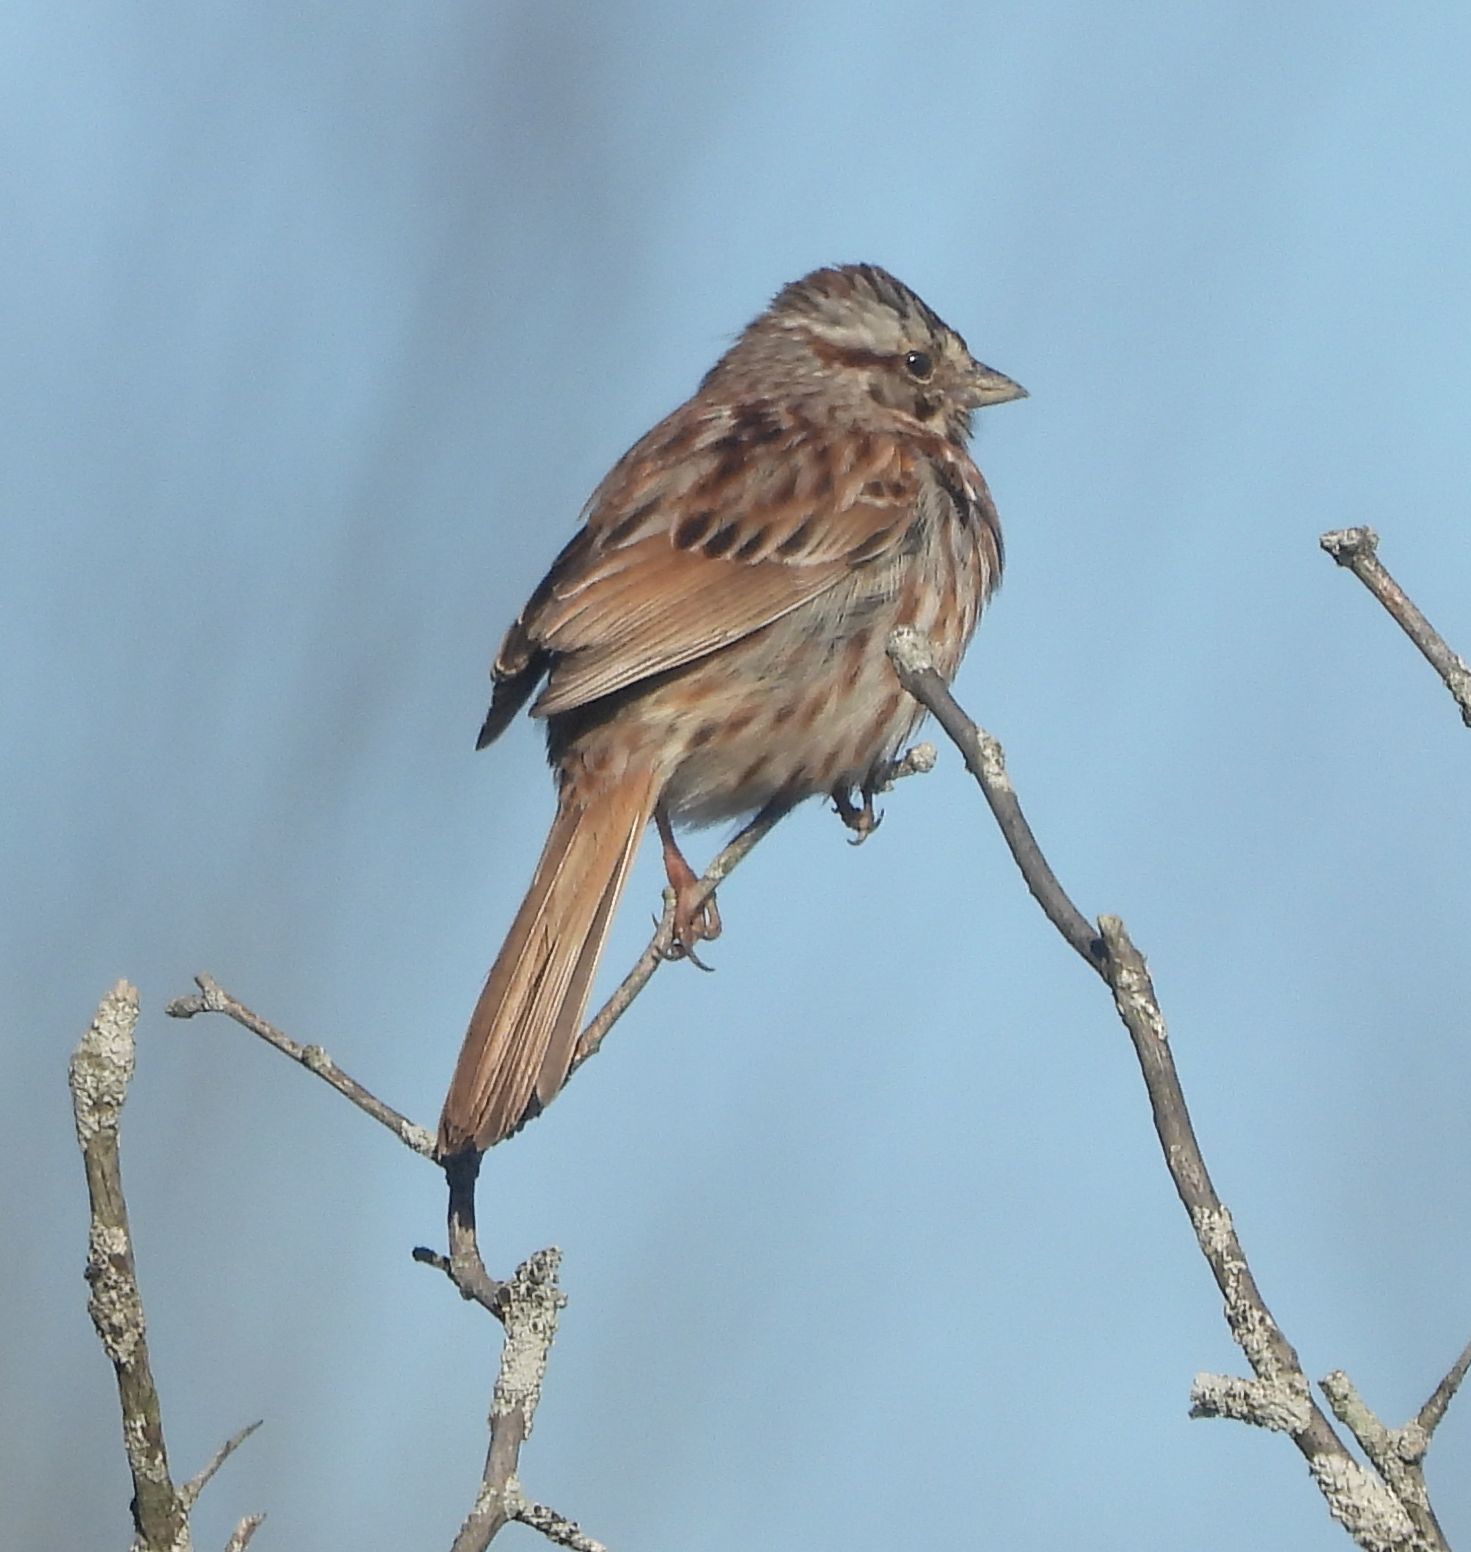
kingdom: Animalia
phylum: Chordata
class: Aves
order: Passeriformes
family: Passerellidae
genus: Melospiza
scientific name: Melospiza melodia
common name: Song sparrow
